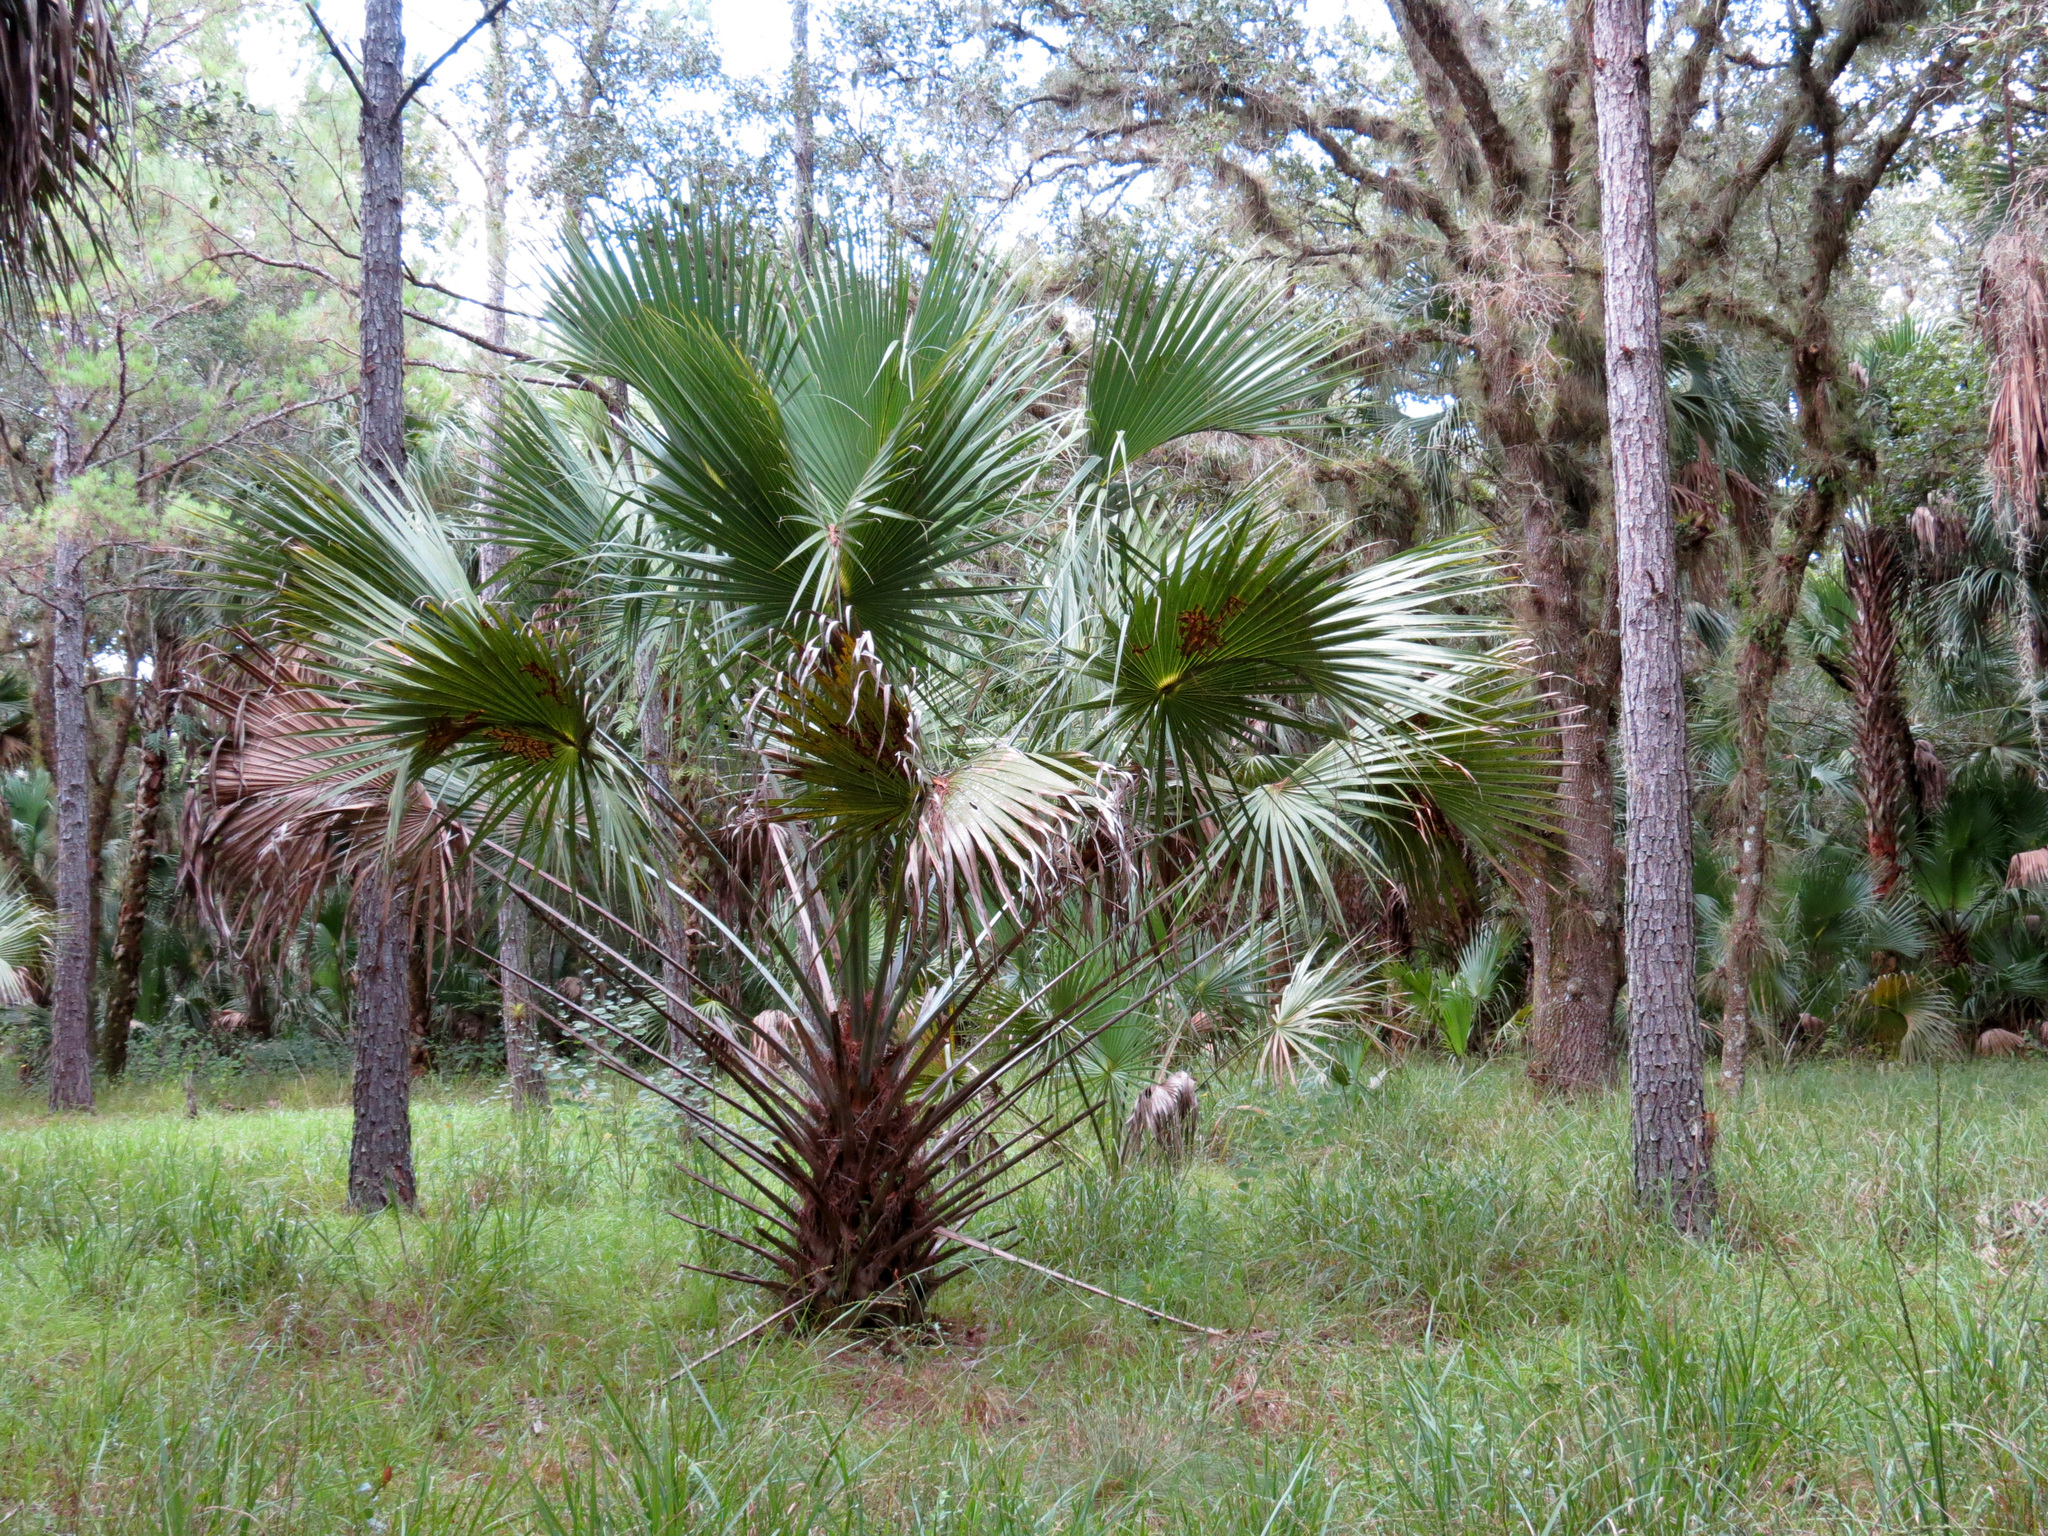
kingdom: Plantae
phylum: Tracheophyta
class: Liliopsida
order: Arecales
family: Arecaceae
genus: Sabal
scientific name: Sabal palmetto
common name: Blue palmetto
